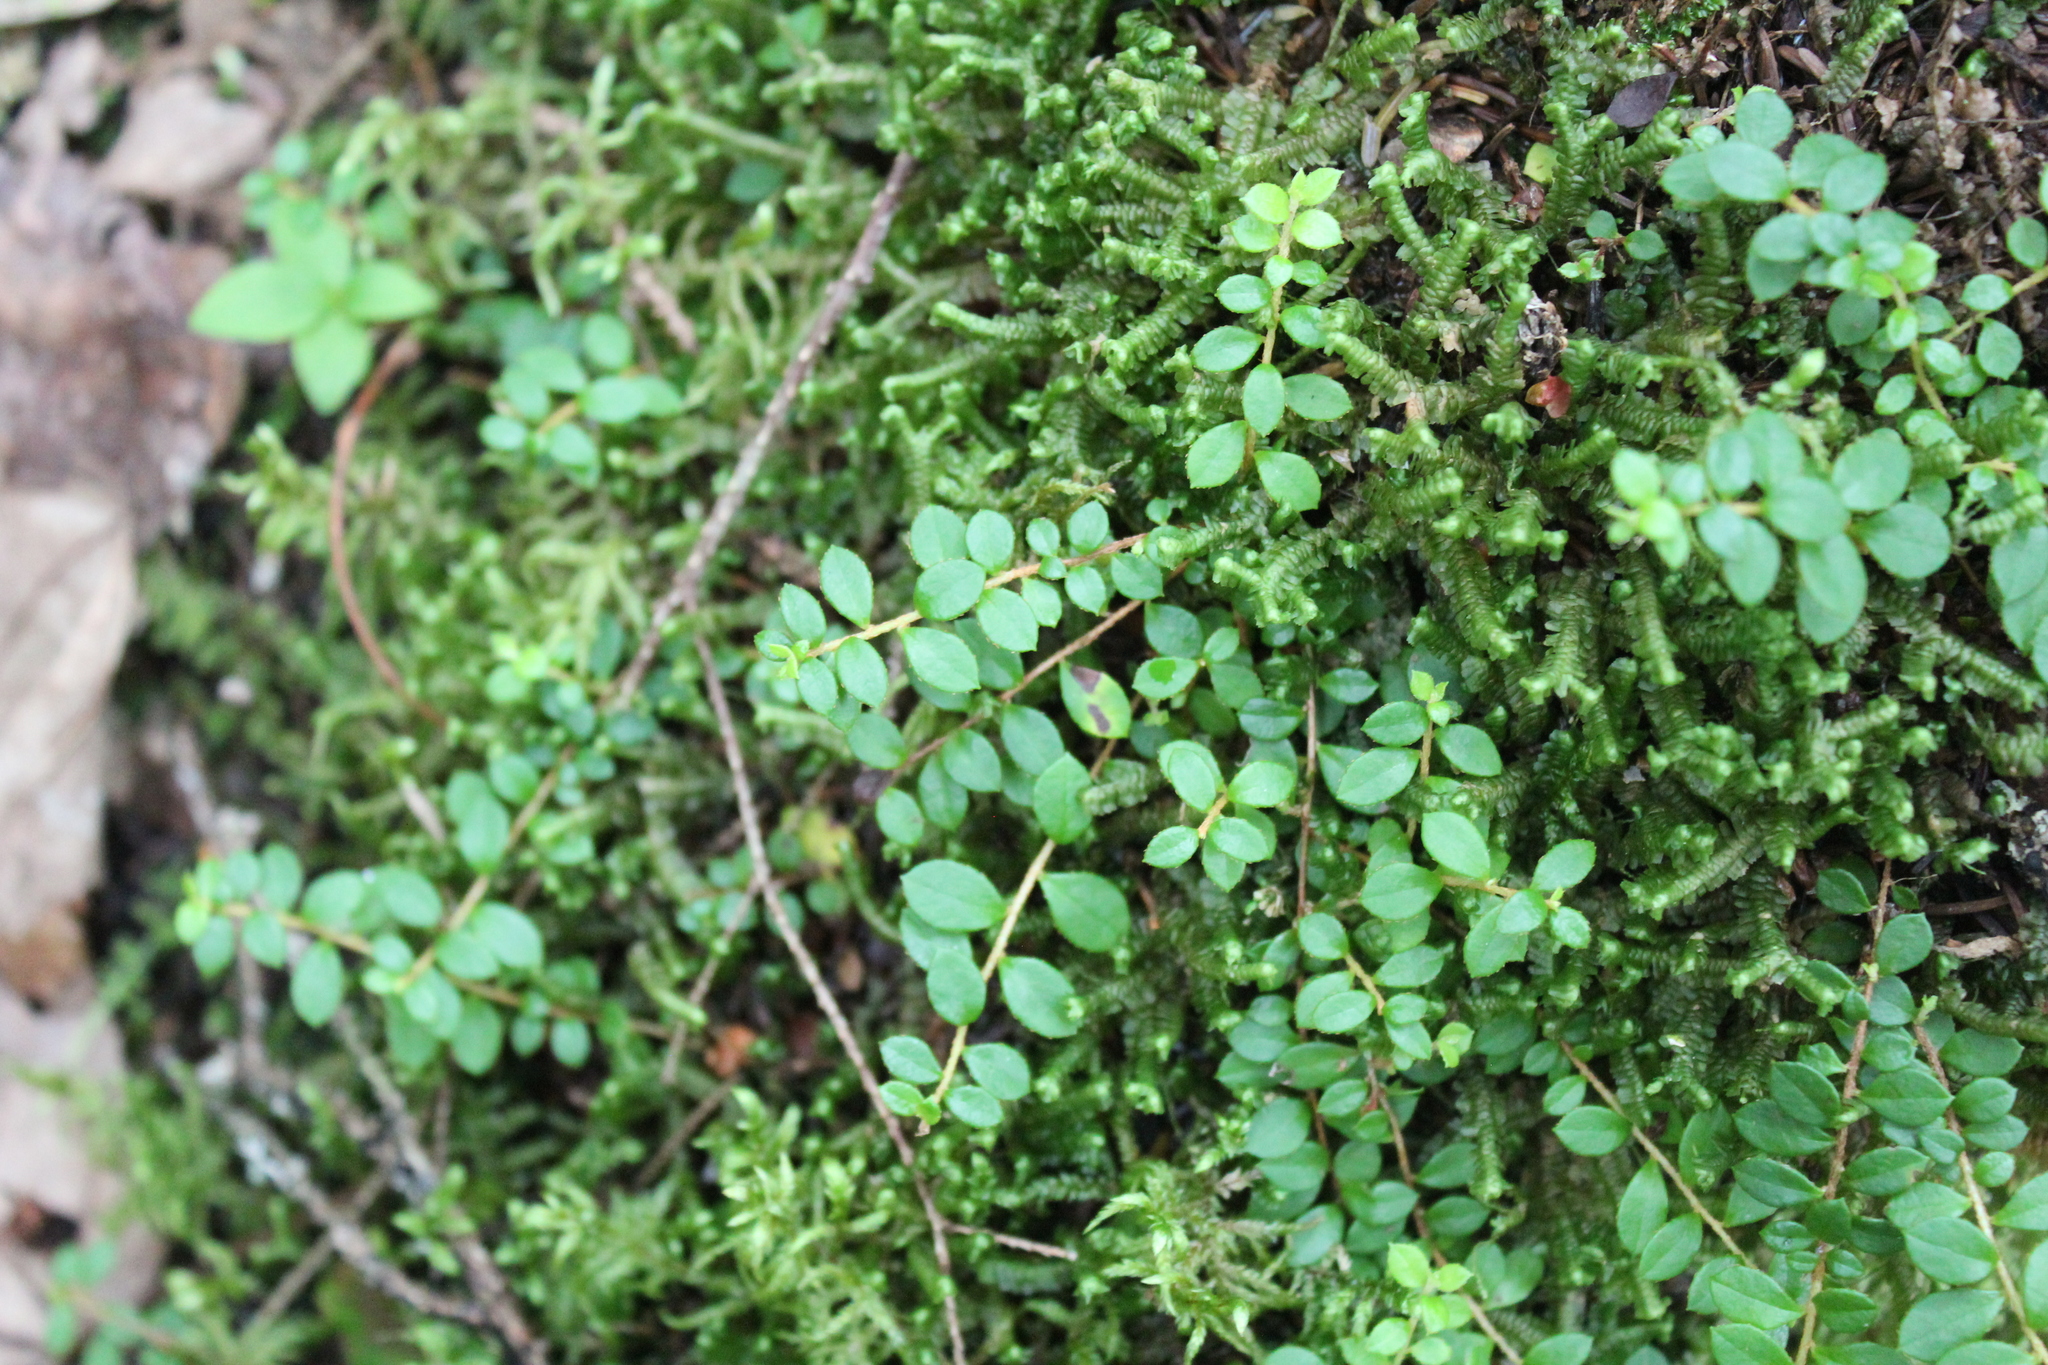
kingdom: Plantae
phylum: Tracheophyta
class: Magnoliopsida
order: Ericales
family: Ericaceae
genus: Gaultheria
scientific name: Gaultheria hispidula
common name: Cancer wintergreen
